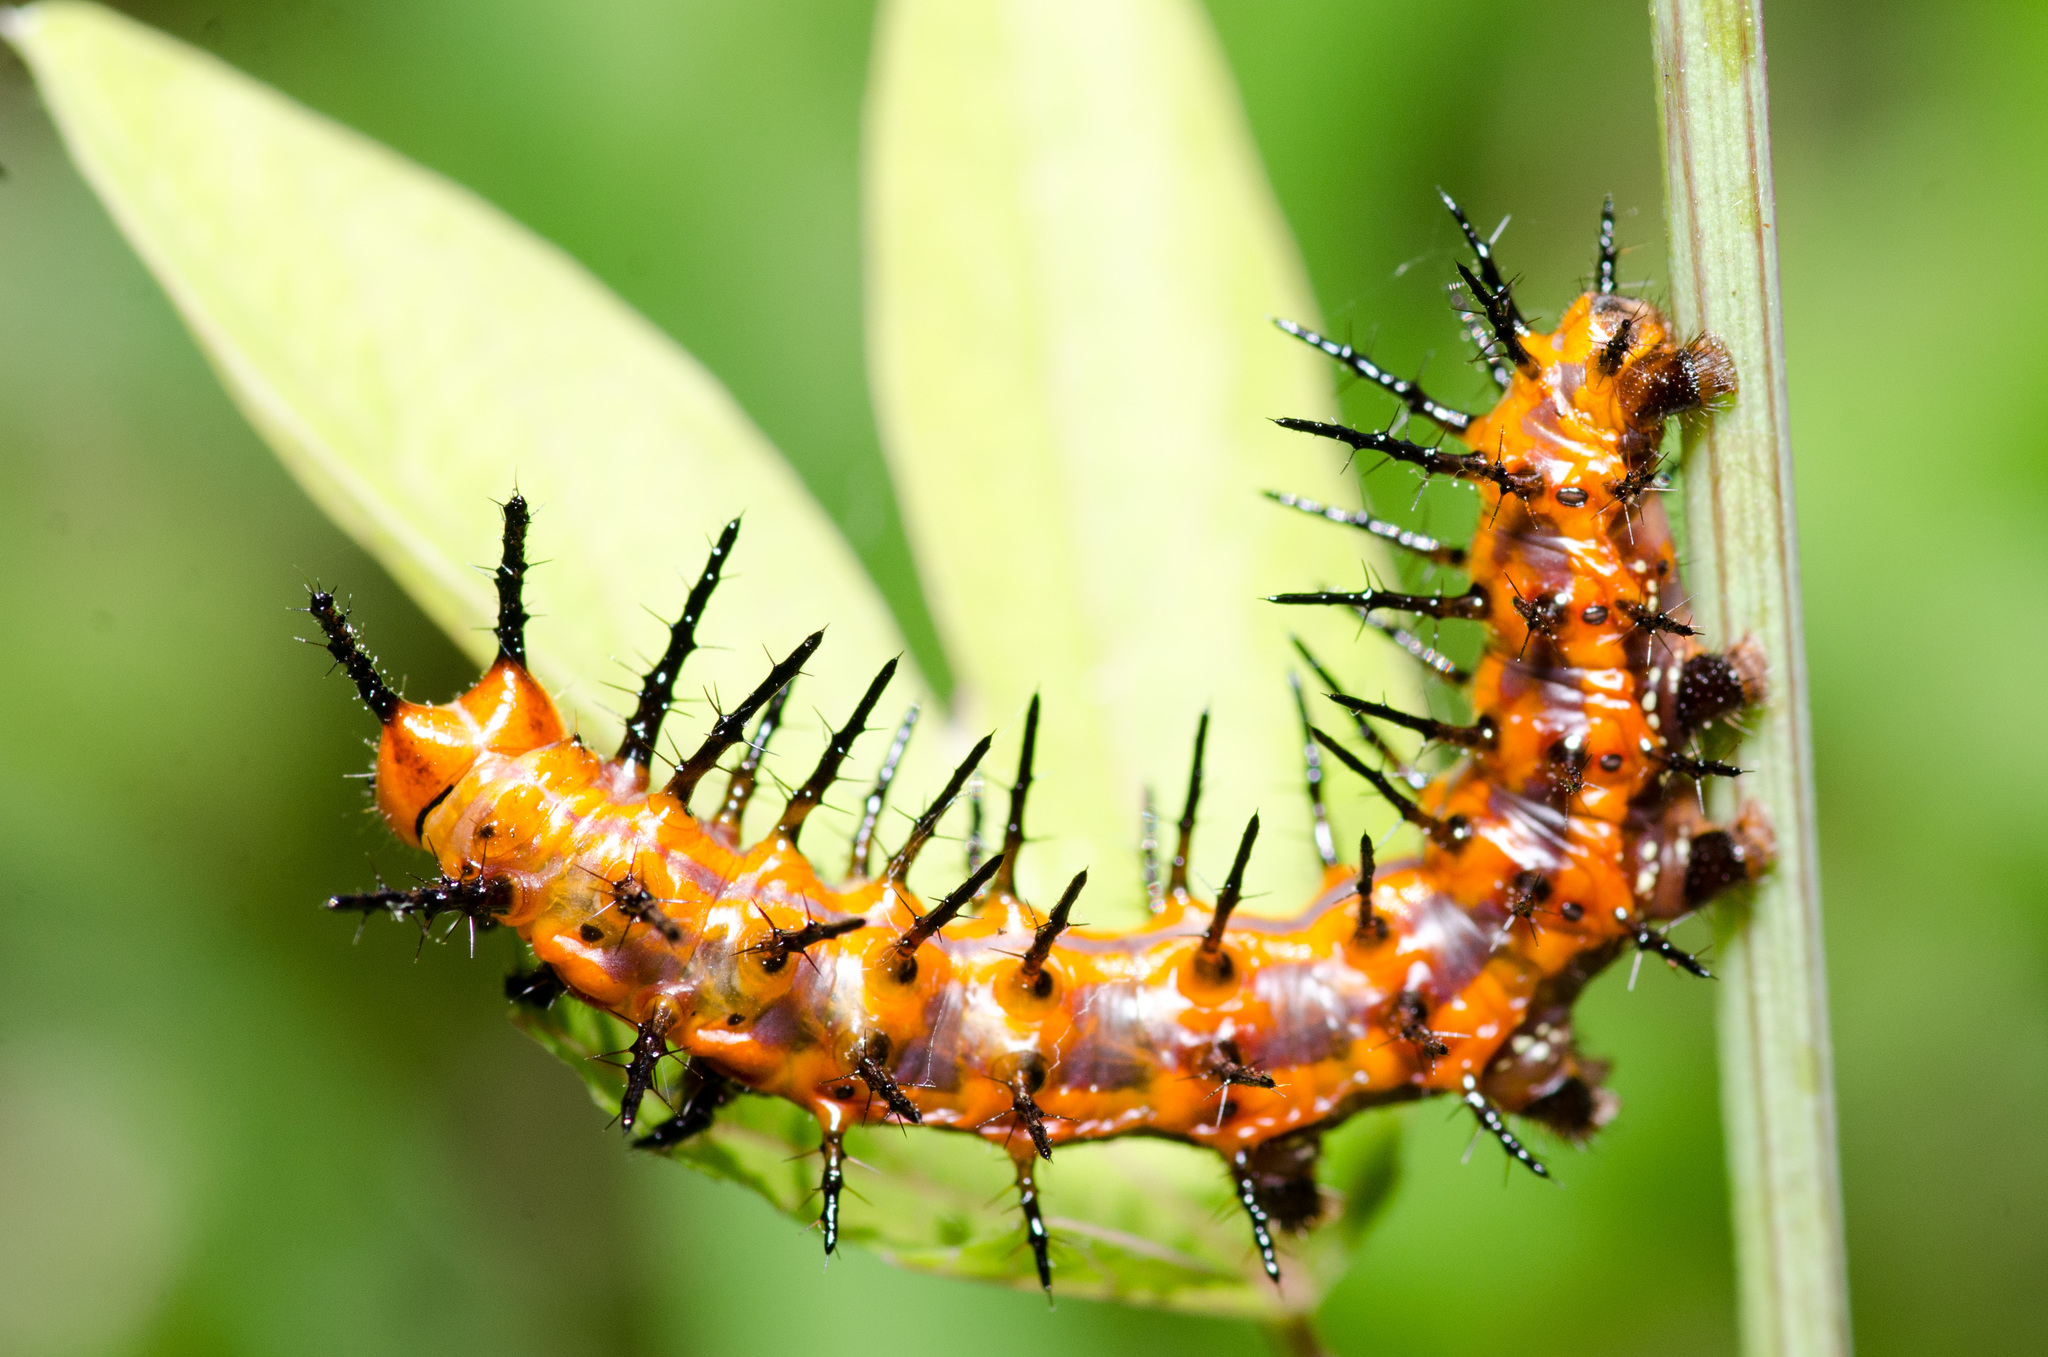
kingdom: Animalia
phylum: Arthropoda
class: Insecta
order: Lepidoptera
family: Nymphalidae
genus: Dione
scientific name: Dione vanillae
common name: Gulf fritillary
